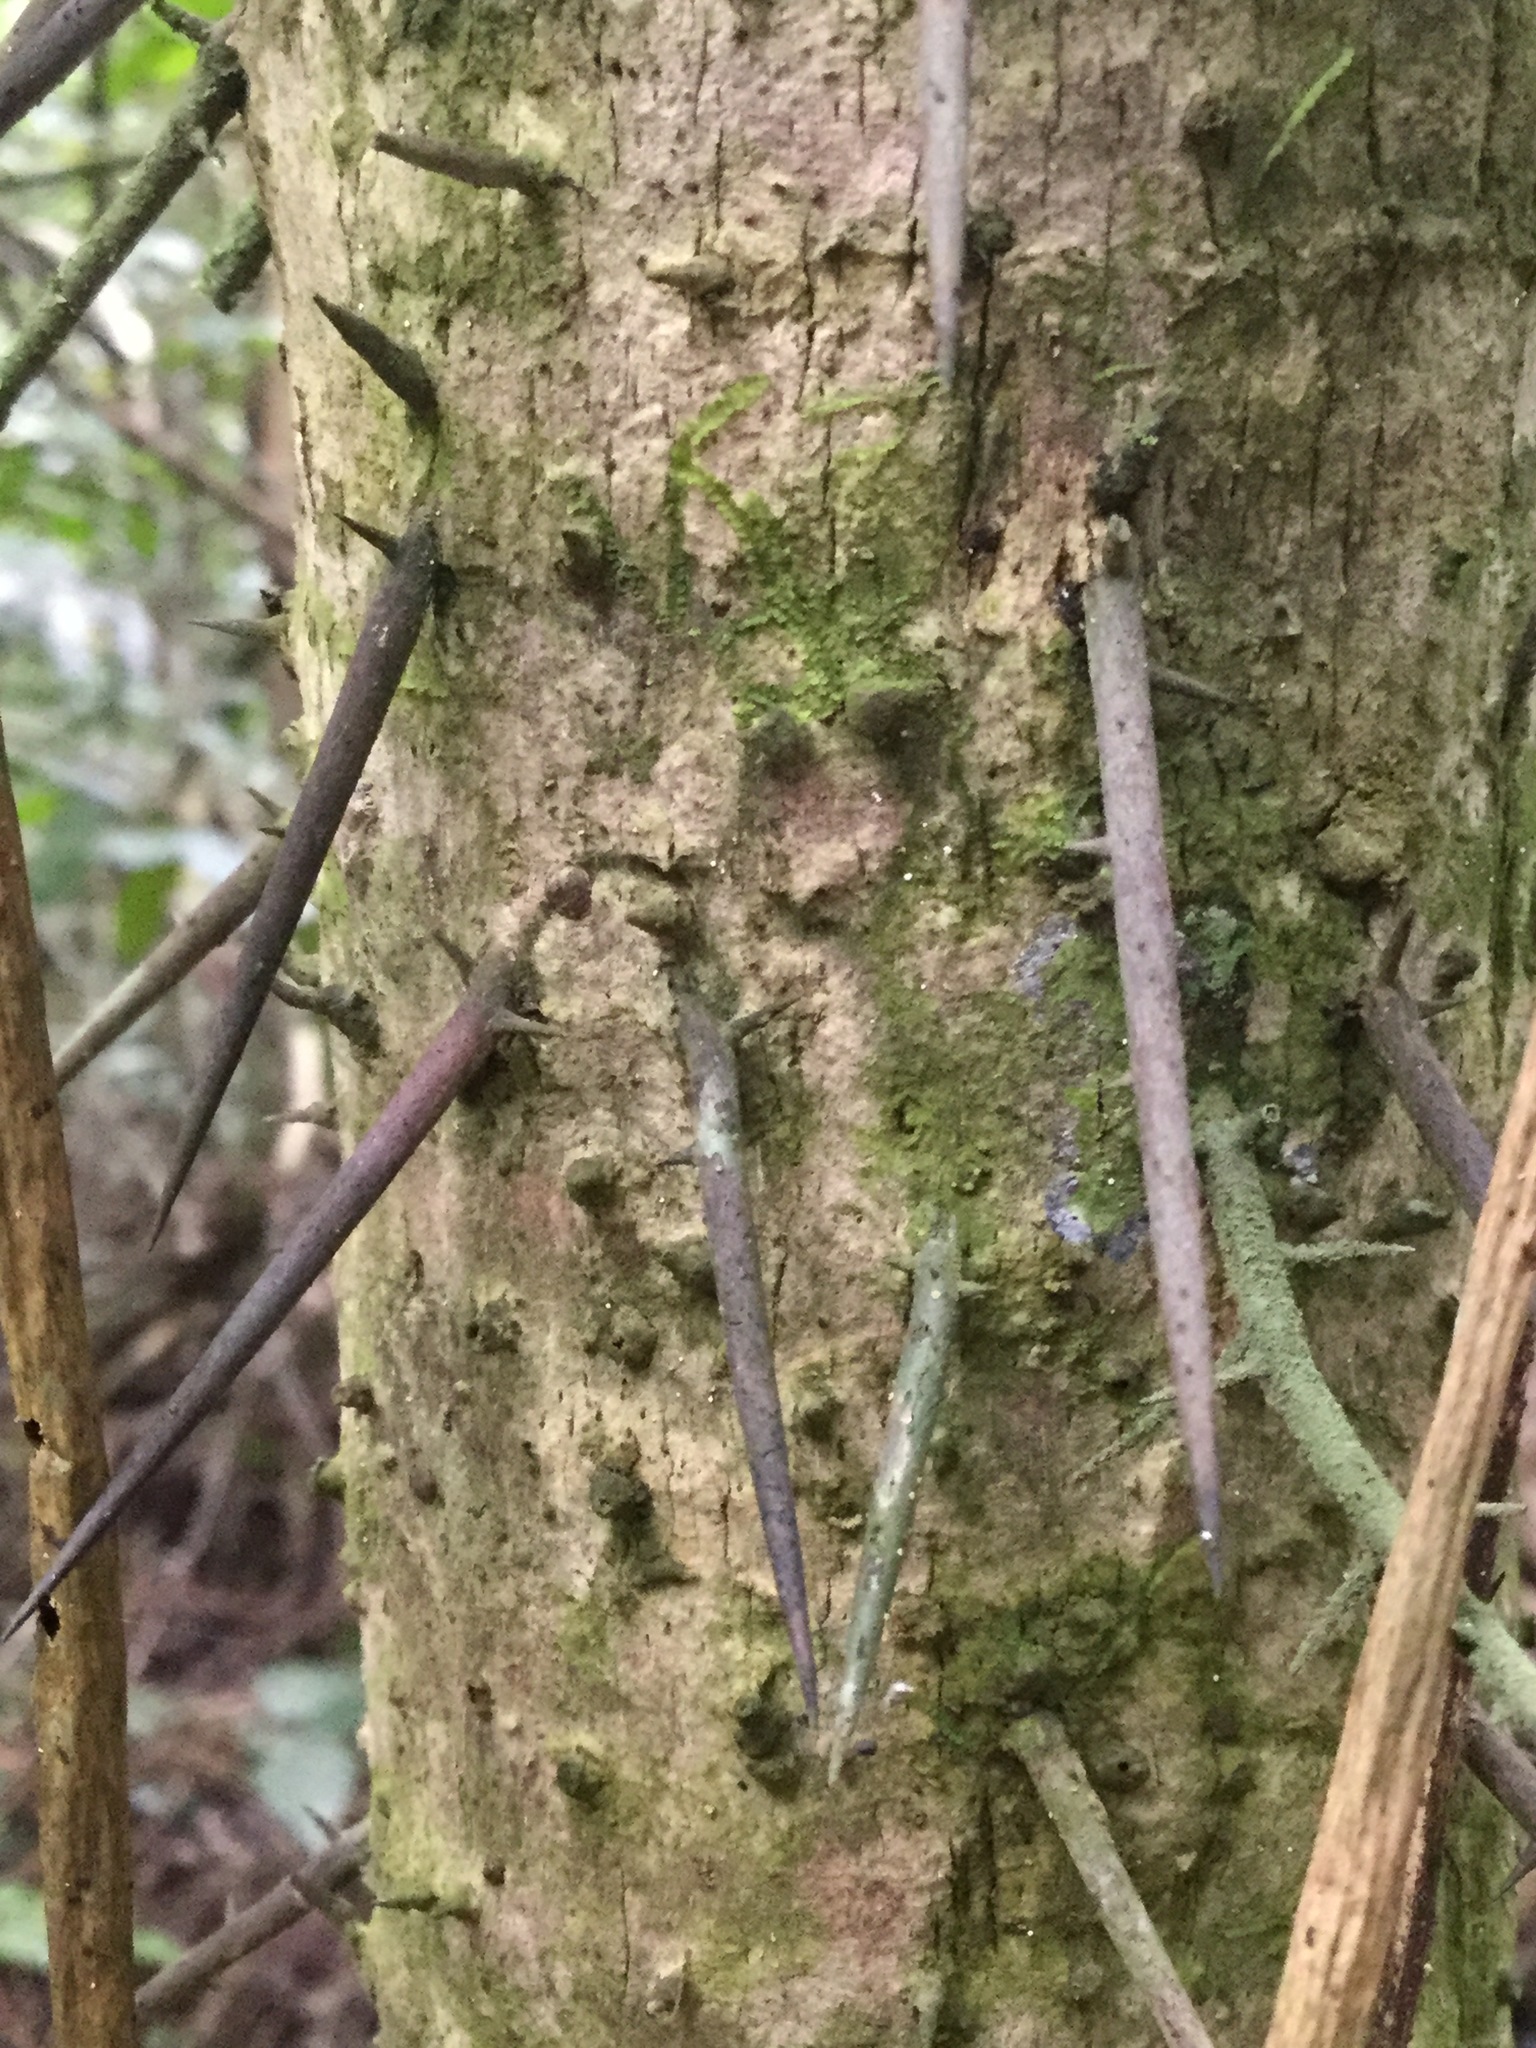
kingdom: Plantae
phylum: Tracheophyta
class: Liliopsida
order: Arecales
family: Arecaceae
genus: Cryosophila
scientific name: Cryosophila stauracantha
